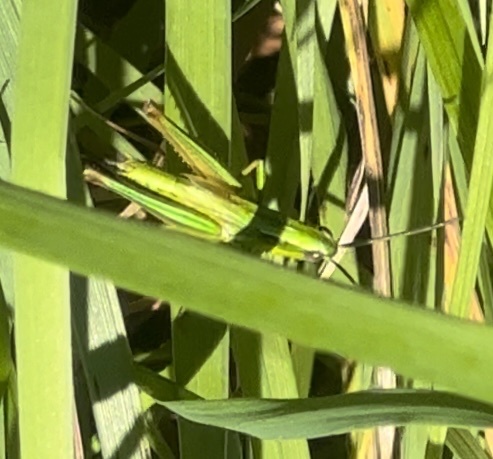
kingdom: Animalia
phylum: Arthropoda
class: Insecta
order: Orthoptera
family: Acrididae
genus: Euthystira
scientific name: Euthystira brachyptera
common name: Small gold grasshopper
